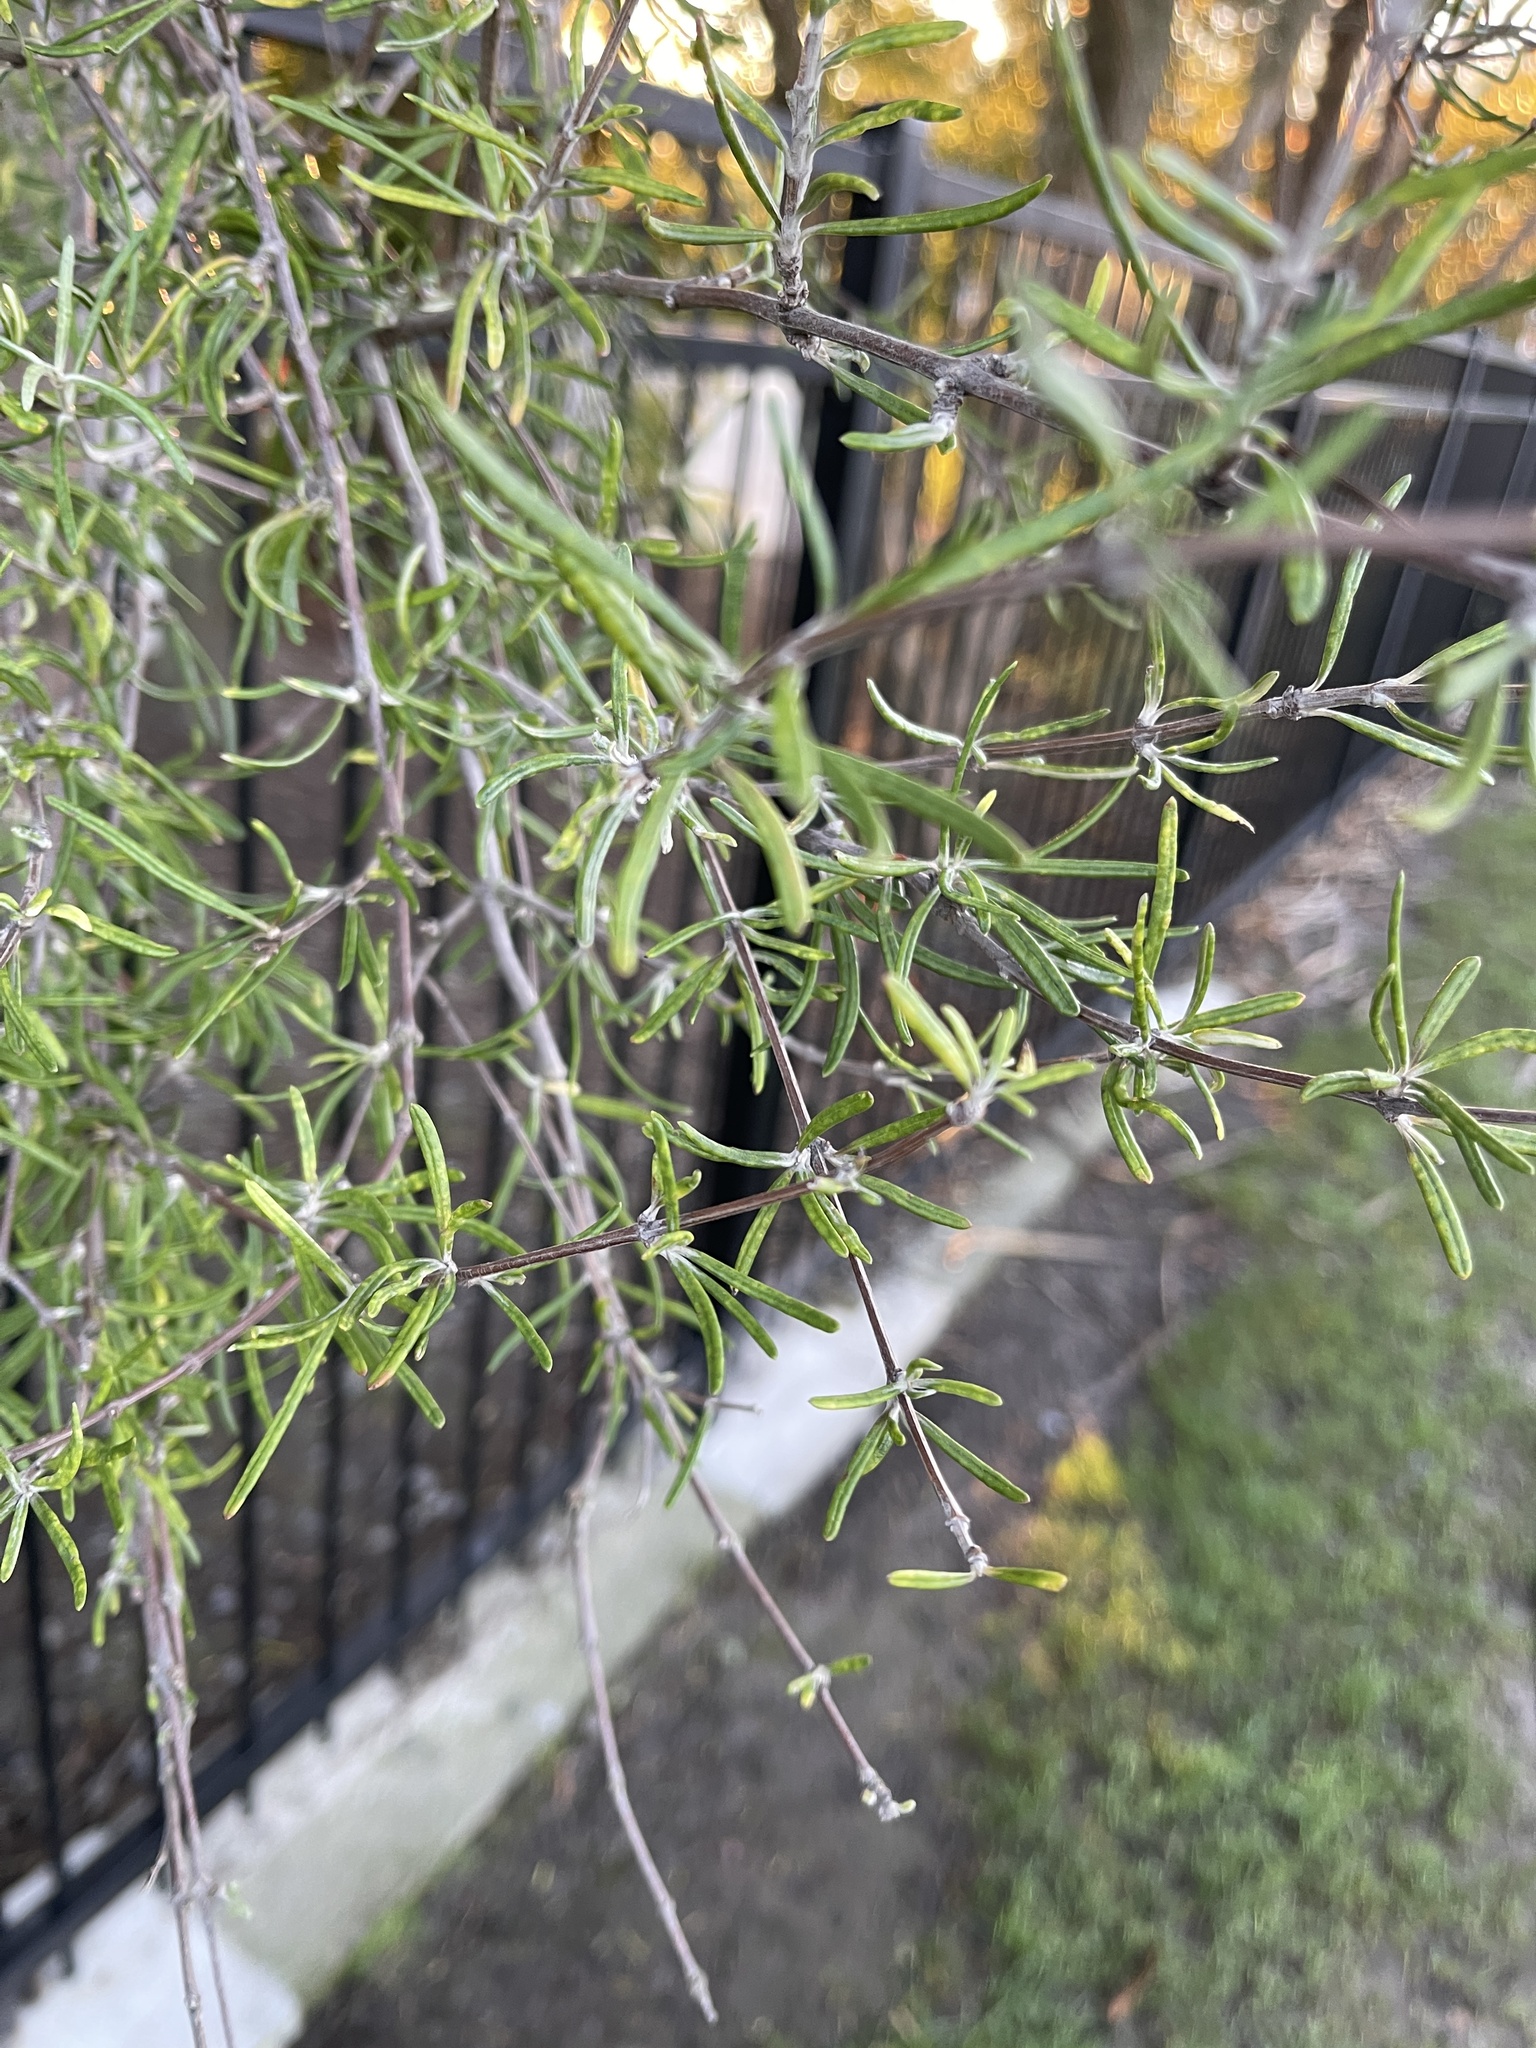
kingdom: Plantae
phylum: Tracheophyta
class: Magnoliopsida
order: Asterales
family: Asteraceae
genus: Olearia
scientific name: Olearia lineata
